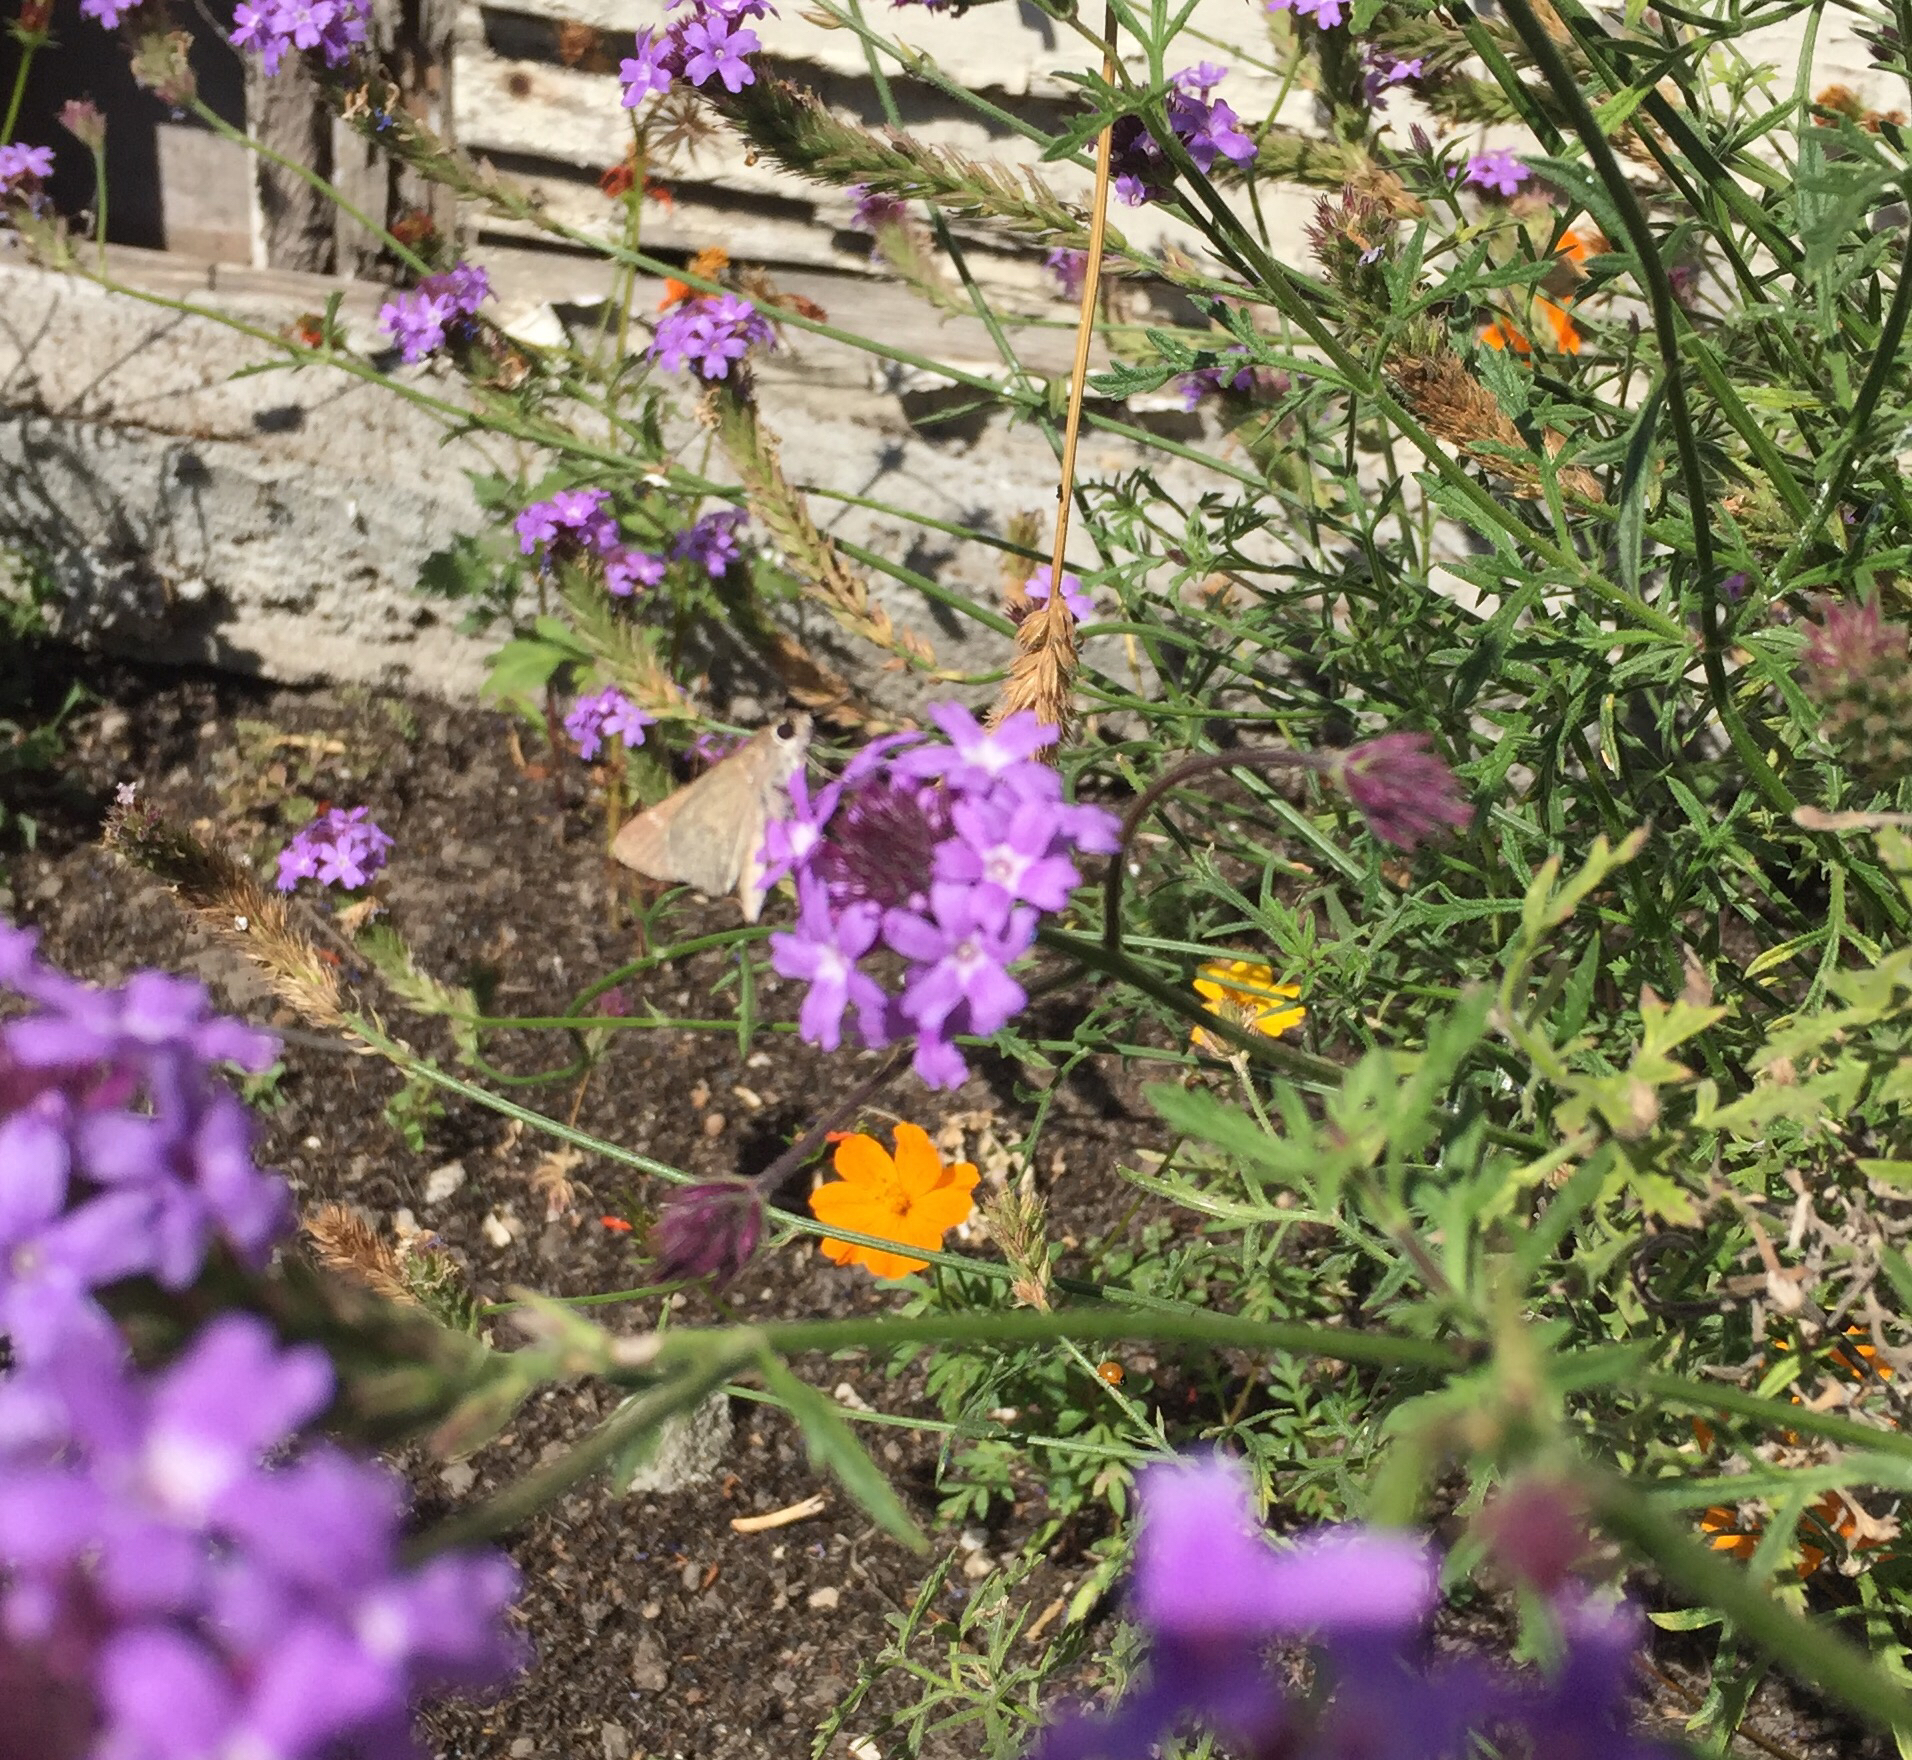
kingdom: Animalia
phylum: Arthropoda
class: Insecta
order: Lepidoptera
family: Hesperiidae
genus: Lerodea
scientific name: Lerodea eufala
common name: Eufala skipper
